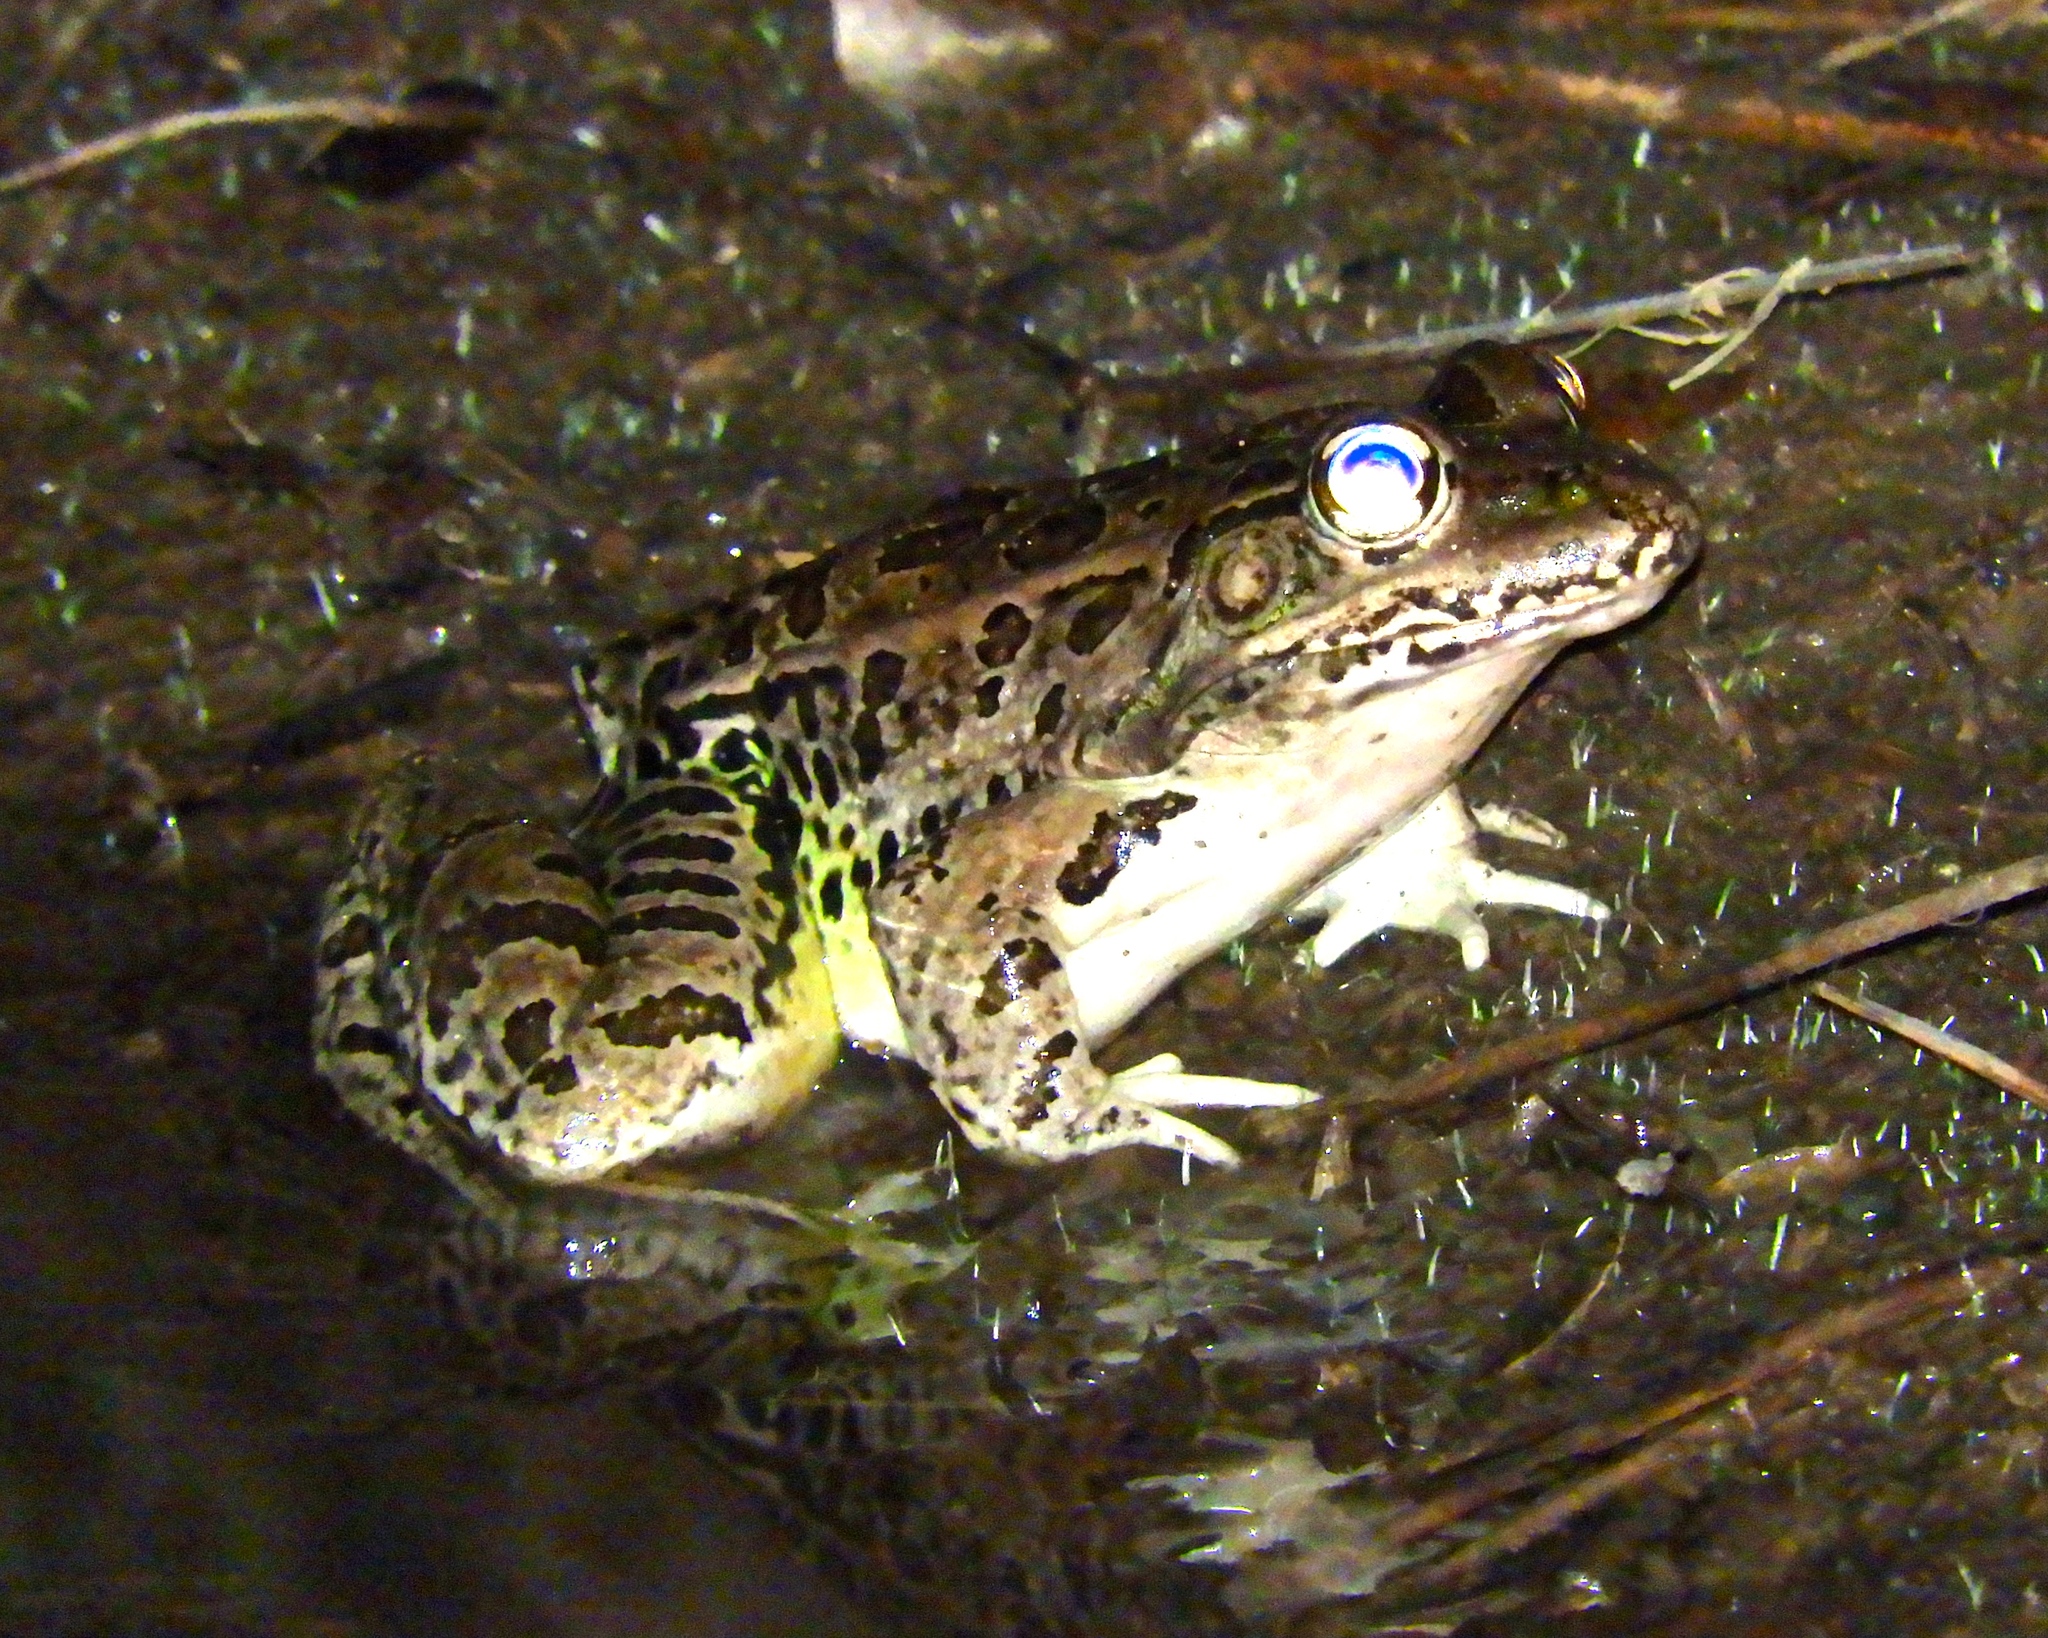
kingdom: Animalia
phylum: Chordata
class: Amphibia
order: Anura
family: Ranidae
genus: Lithobates
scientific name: Lithobates magnaocularis
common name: Northwest mexico leopard frog
